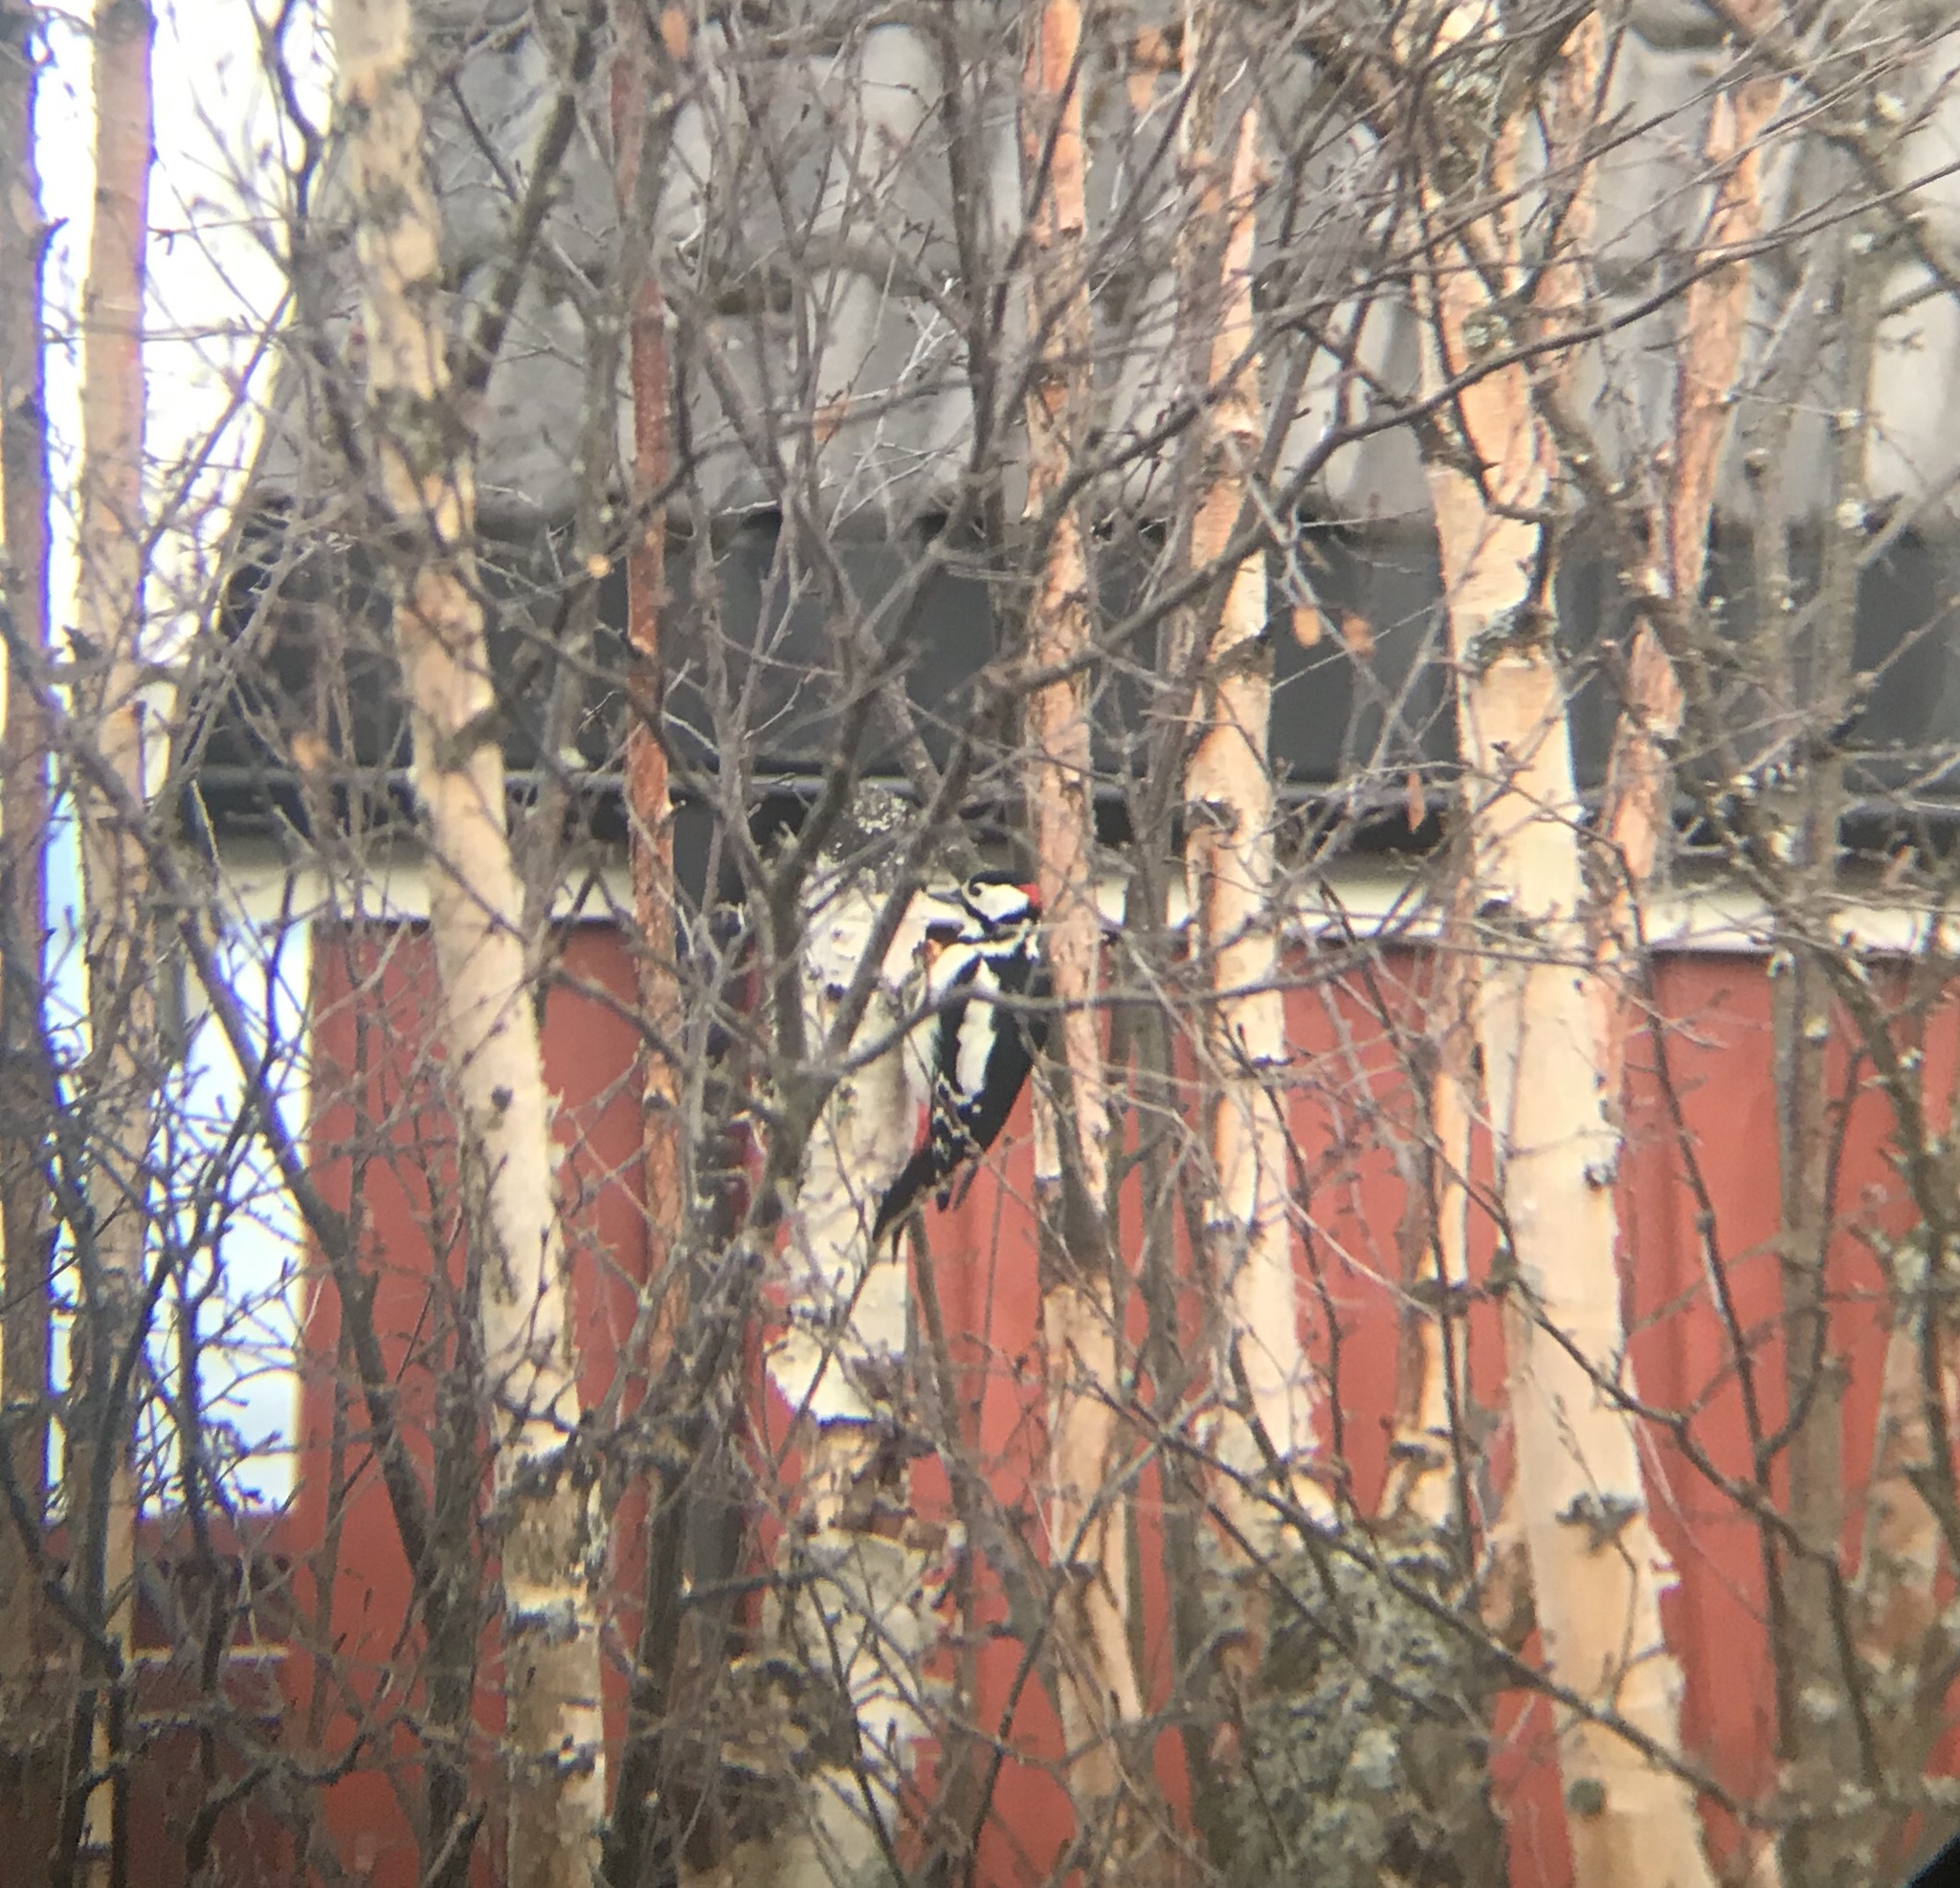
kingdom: Animalia
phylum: Chordata
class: Aves
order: Piciformes
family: Picidae
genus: Dendrocopos
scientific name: Dendrocopos major
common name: Great spotted woodpecker
